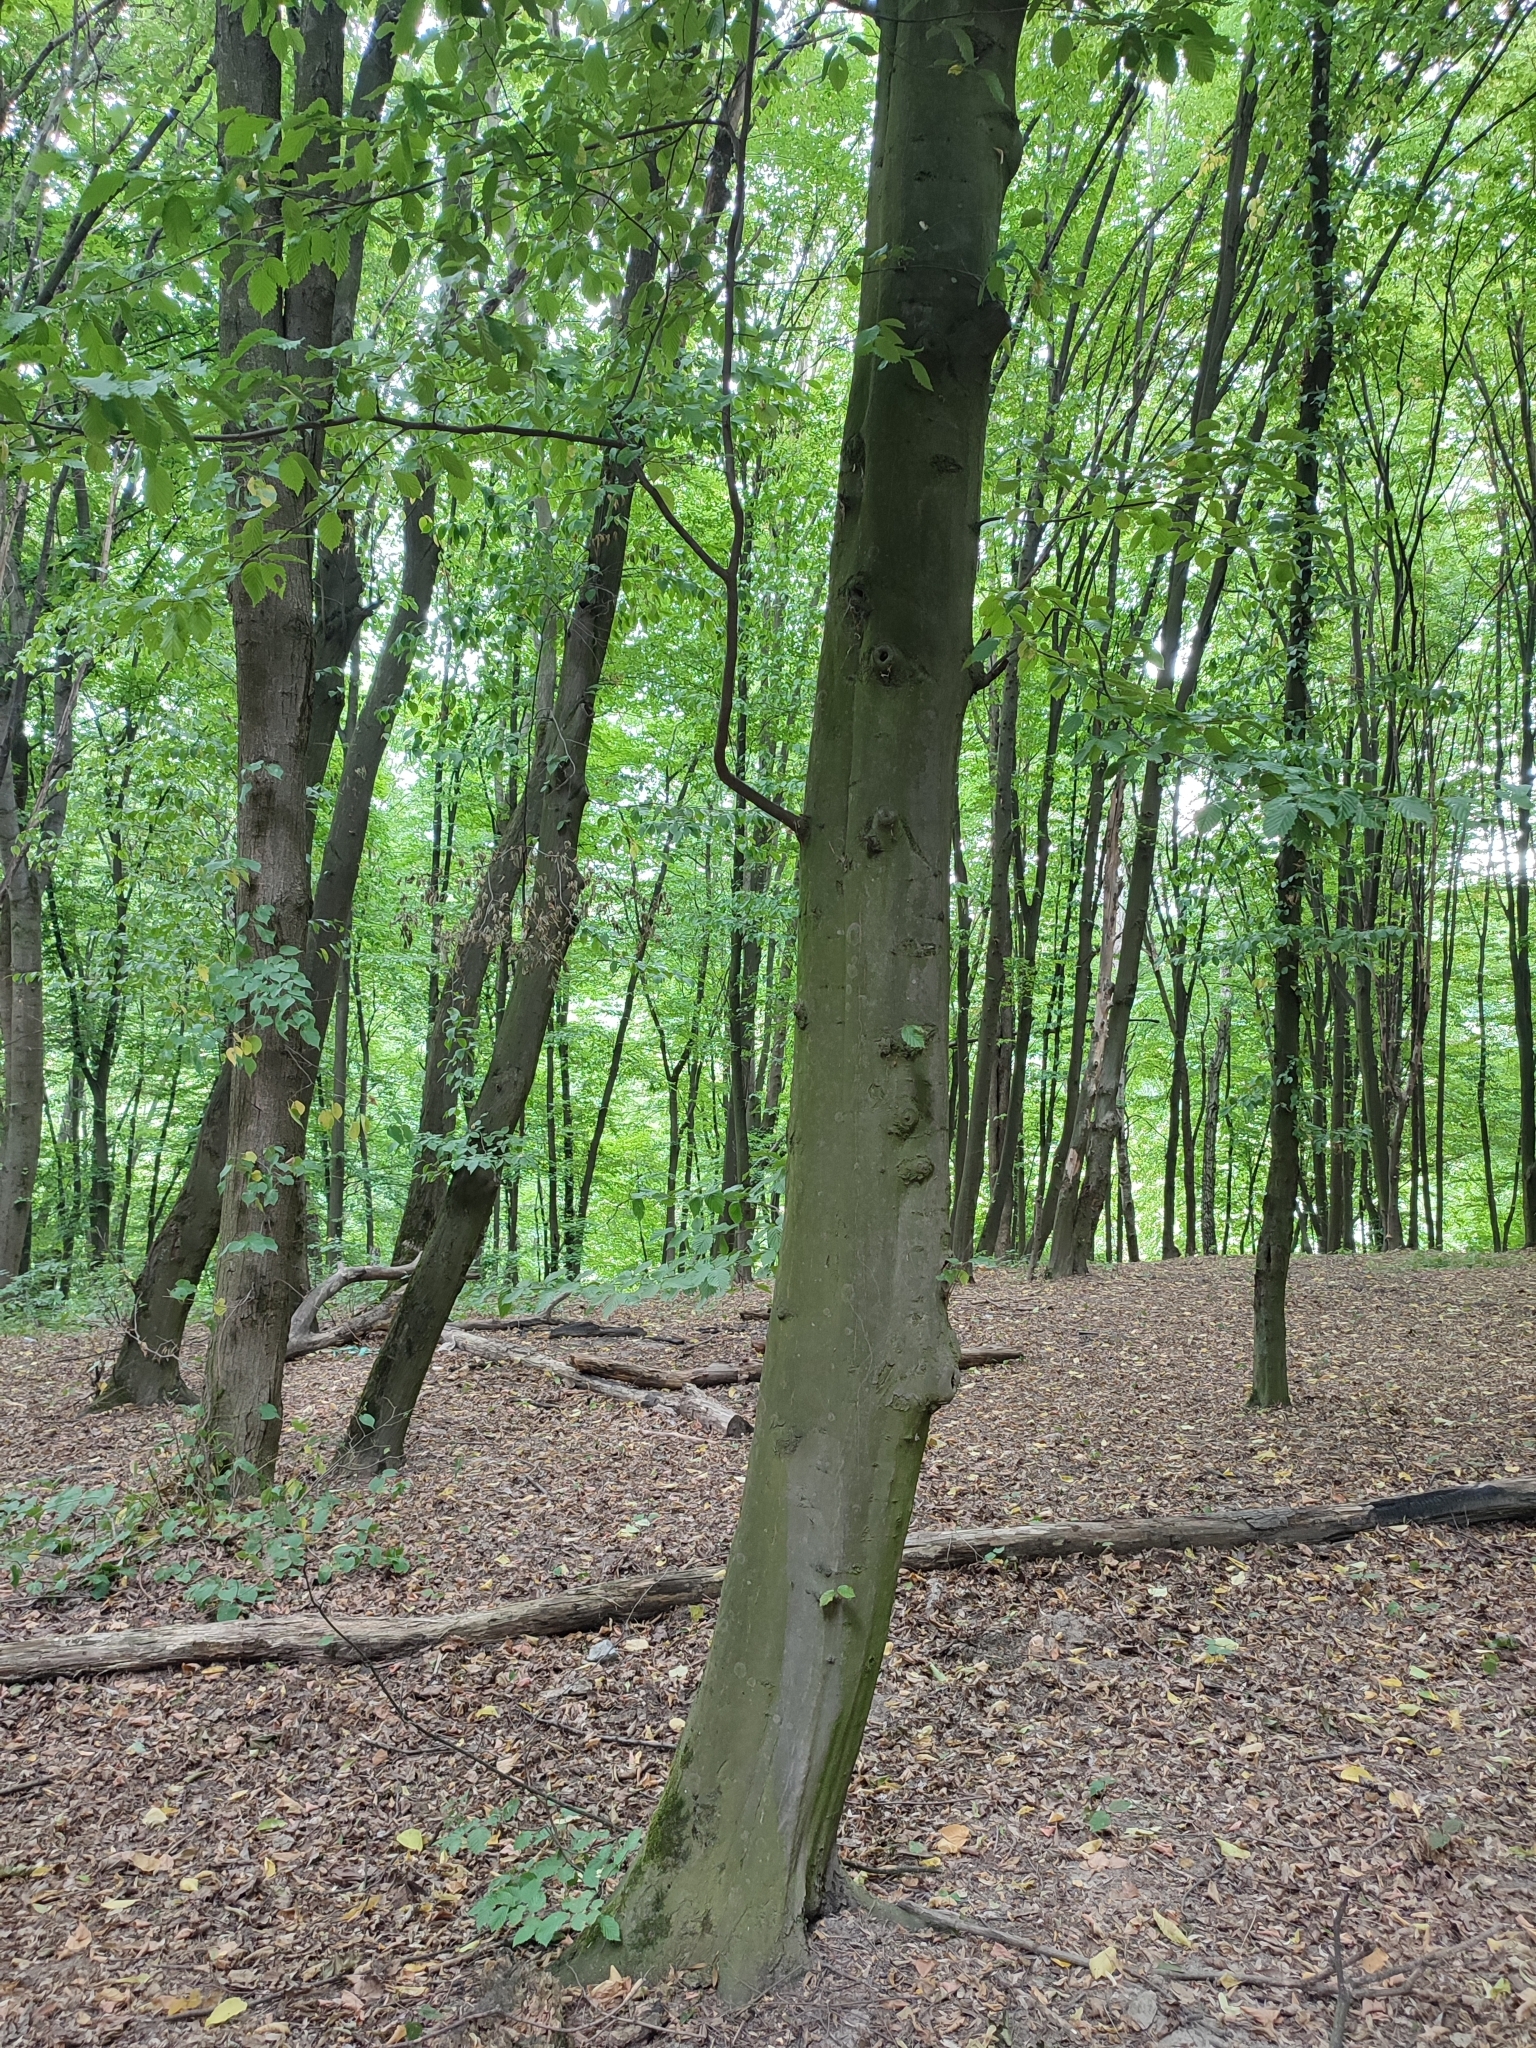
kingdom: Plantae
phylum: Tracheophyta
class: Magnoliopsida
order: Fagales
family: Betulaceae
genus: Carpinus
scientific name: Carpinus betulus
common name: Hornbeam
